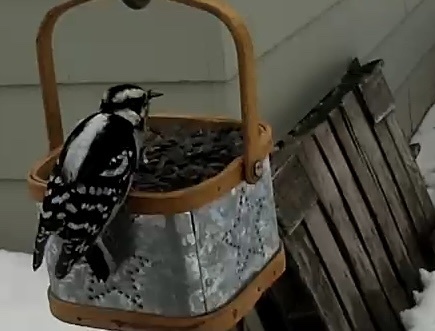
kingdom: Animalia
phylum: Chordata
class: Aves
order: Piciformes
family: Picidae
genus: Dryobates
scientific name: Dryobates pubescens
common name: Downy woodpecker
